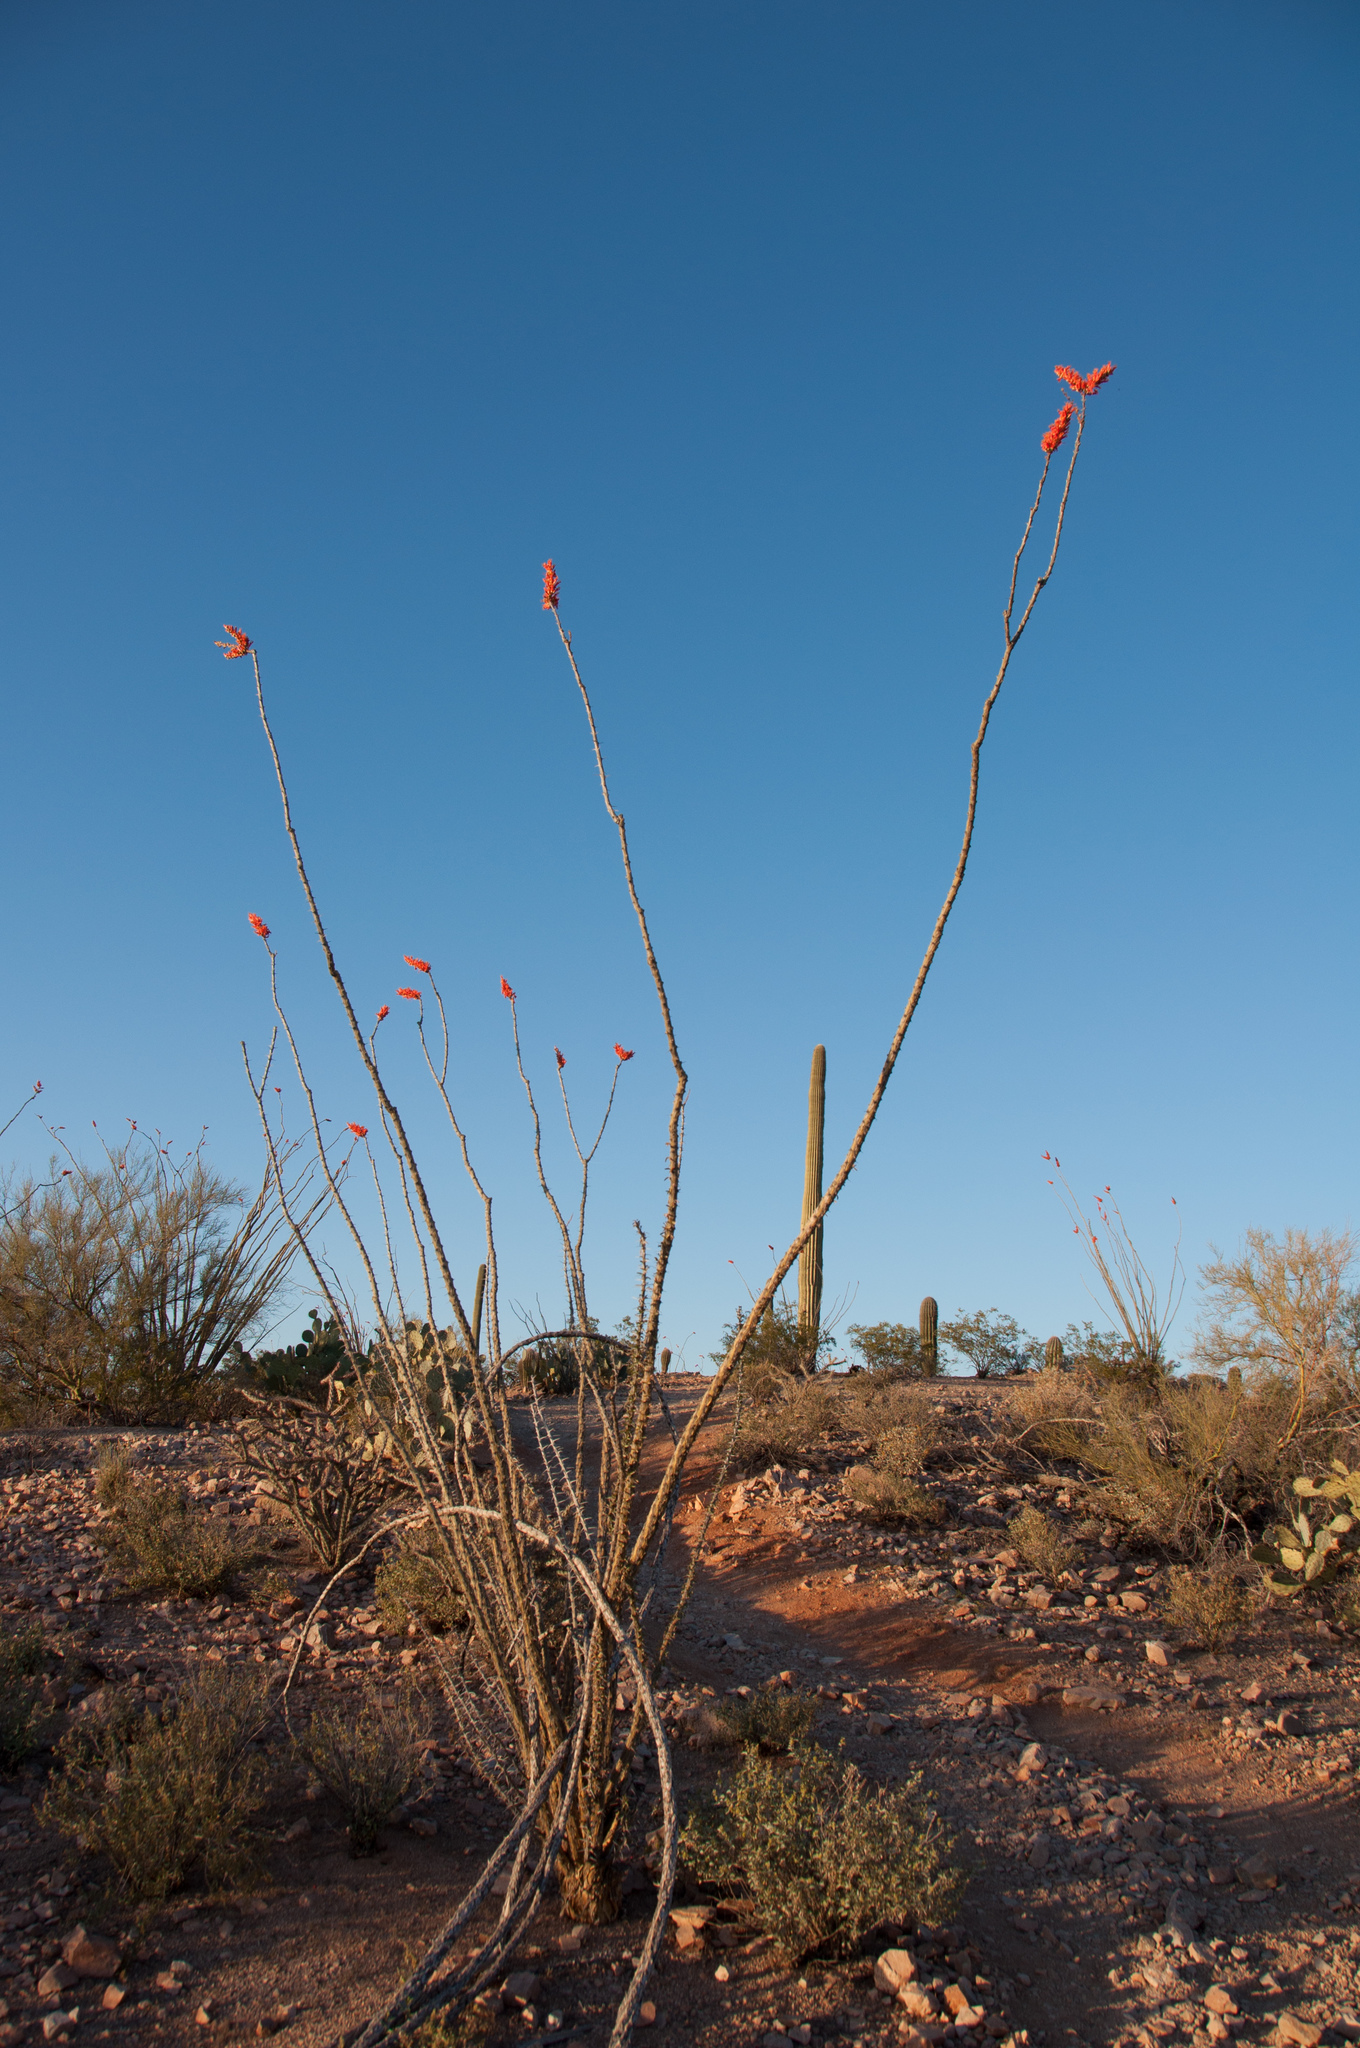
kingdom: Plantae
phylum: Tracheophyta
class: Magnoliopsida
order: Ericales
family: Fouquieriaceae
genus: Fouquieria
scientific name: Fouquieria splendens
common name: Vine-cactus
